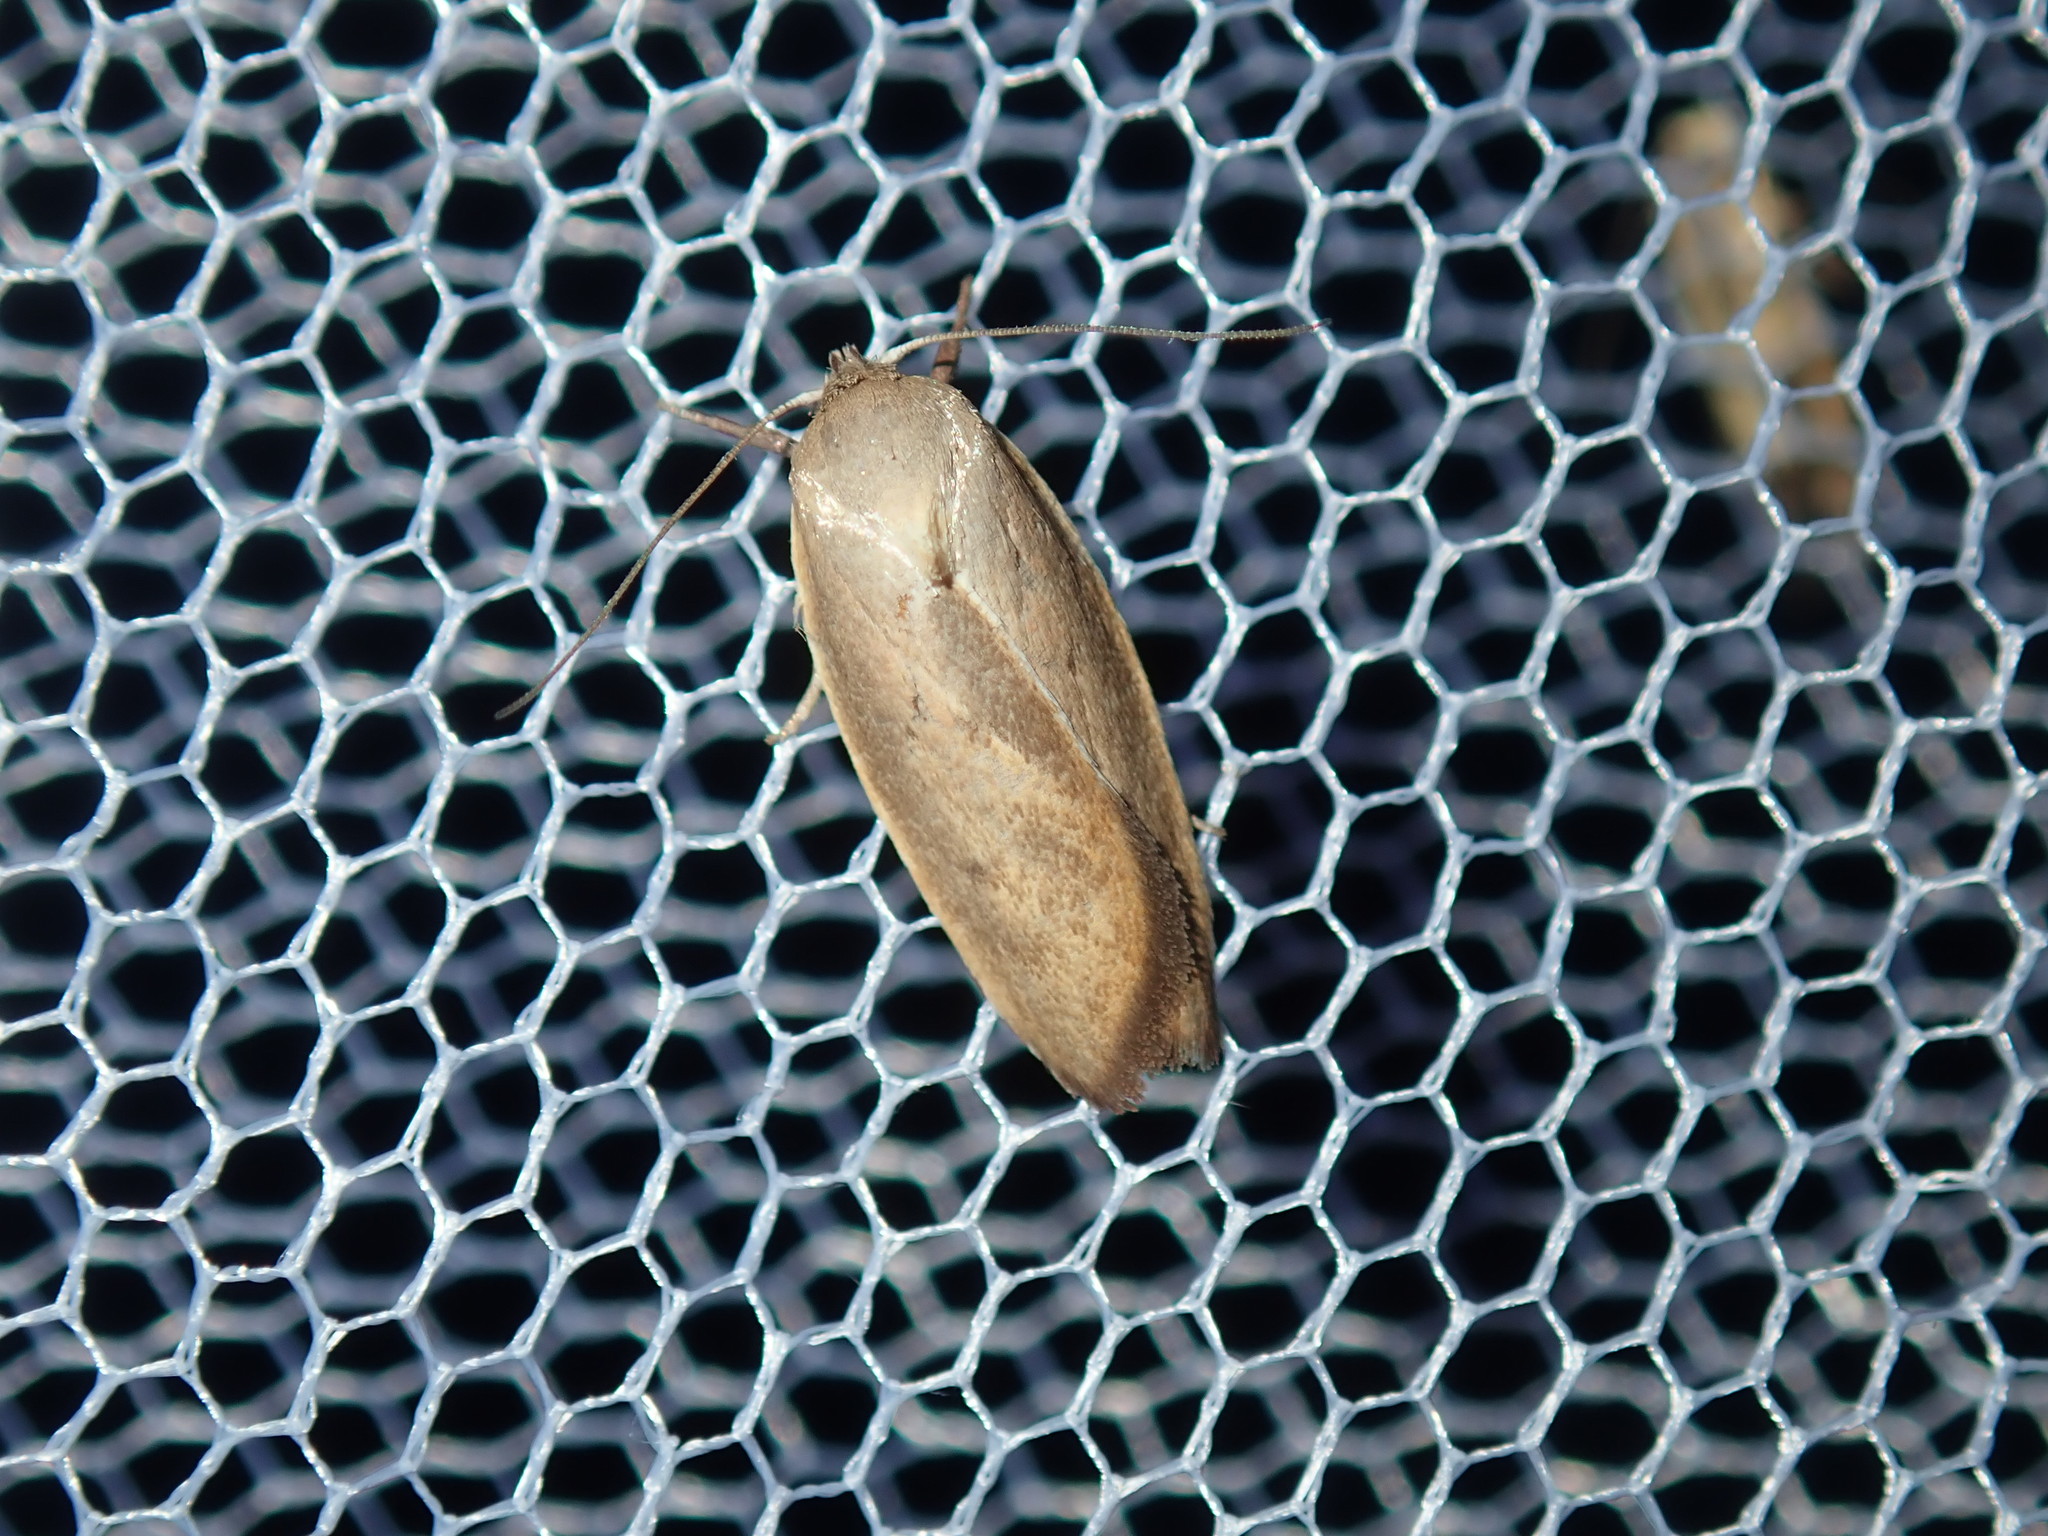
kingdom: Animalia
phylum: Arthropoda
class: Insecta
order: Lepidoptera
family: Oecophoridae
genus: Ptyoptila
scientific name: Ptyoptila matutinella
